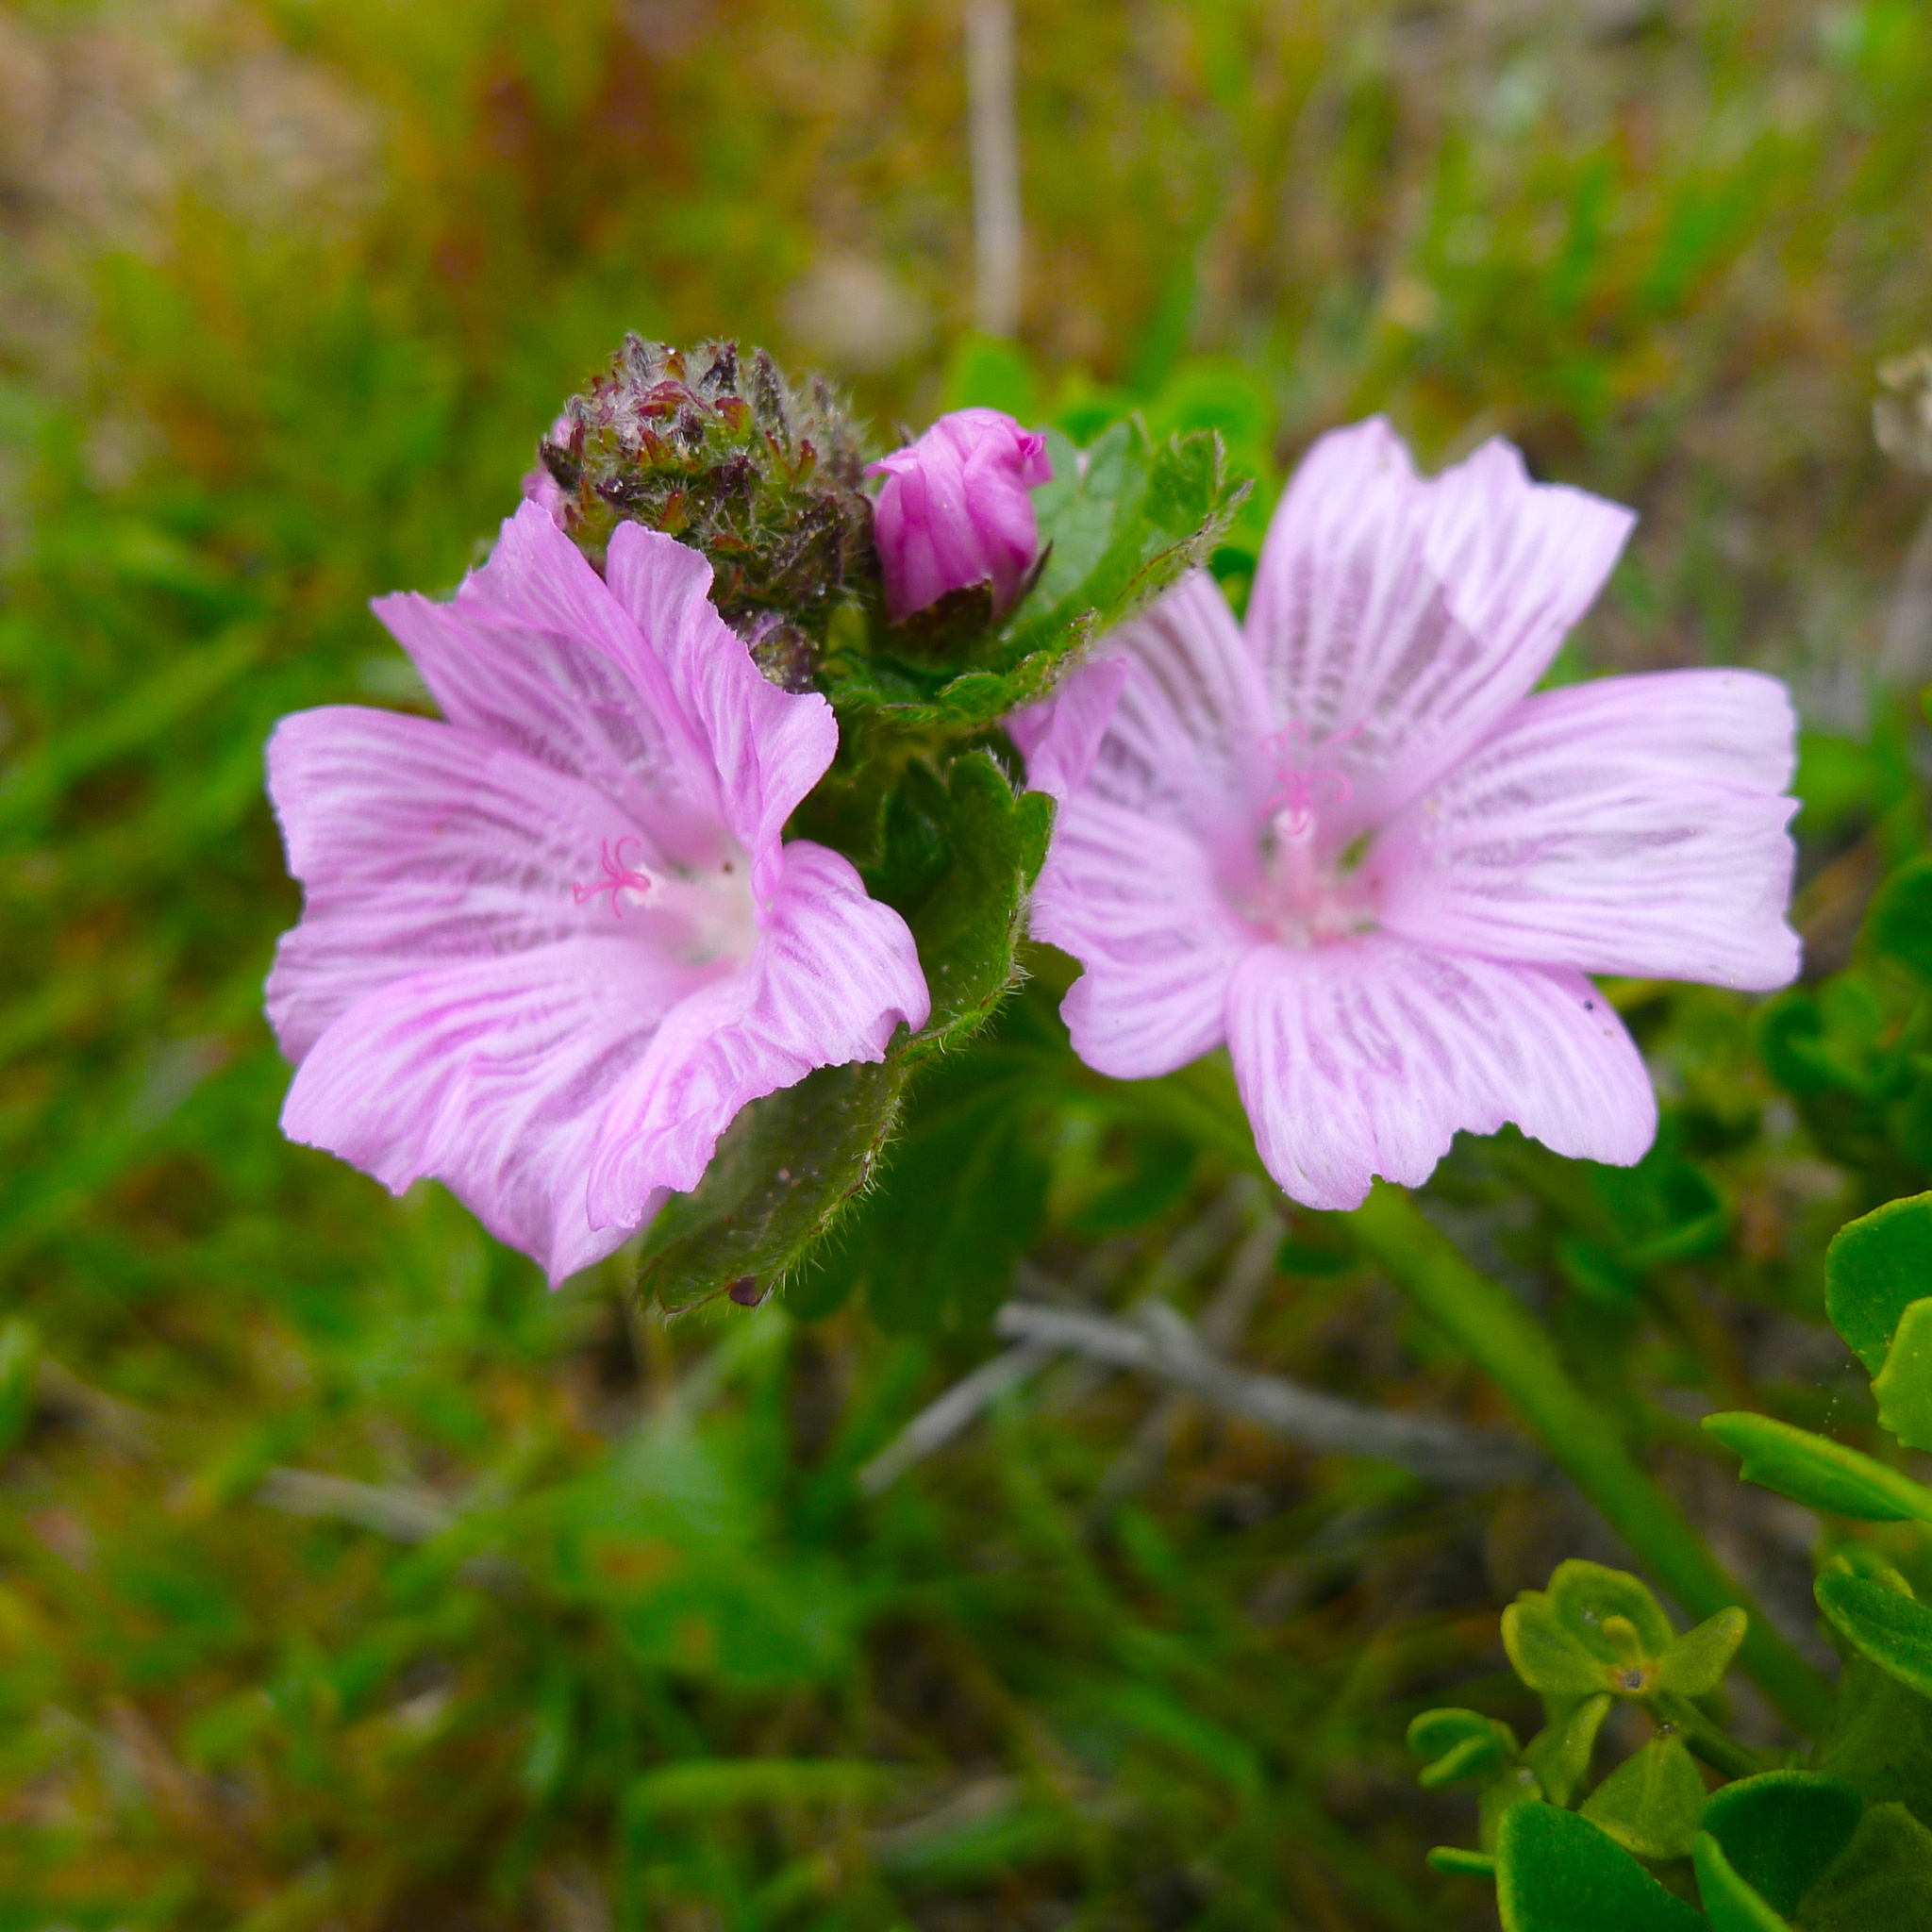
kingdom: Plantae
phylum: Tracheophyta
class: Magnoliopsida
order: Malvales
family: Malvaceae
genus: Sidalcea
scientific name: Sidalcea malviflora
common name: Greek mallow
